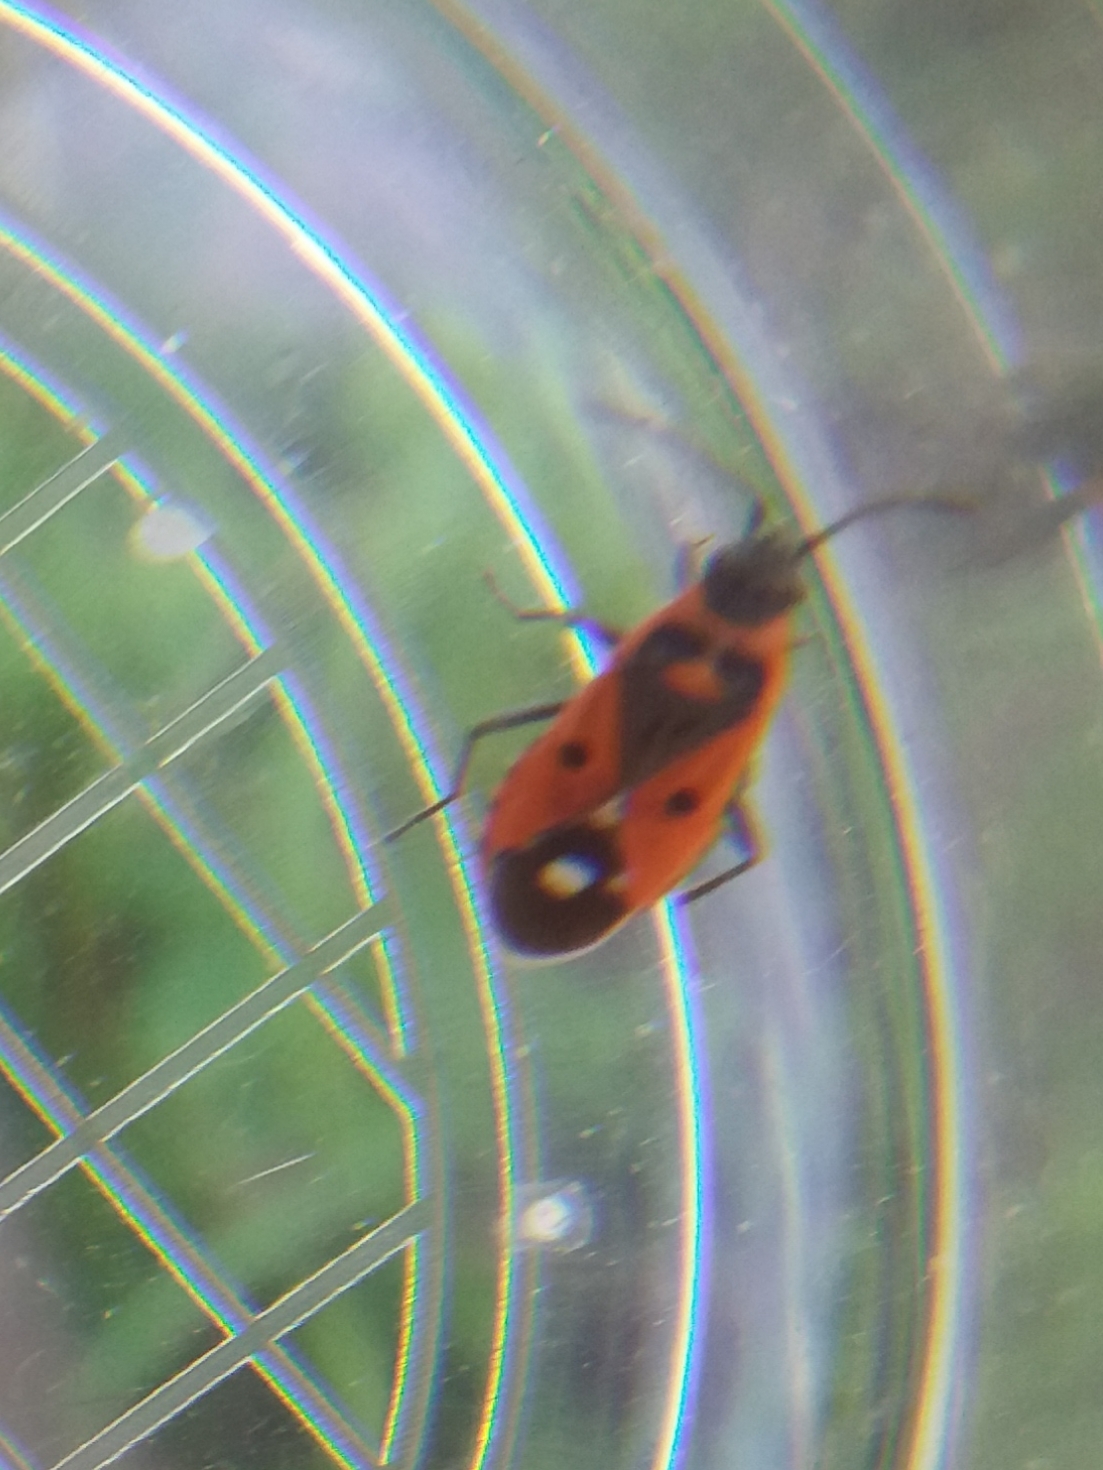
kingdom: Animalia
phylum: Arthropoda
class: Insecta
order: Hemiptera
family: Lygaeidae
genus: Melanocoryphus
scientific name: Melanocoryphus albomaculatus
